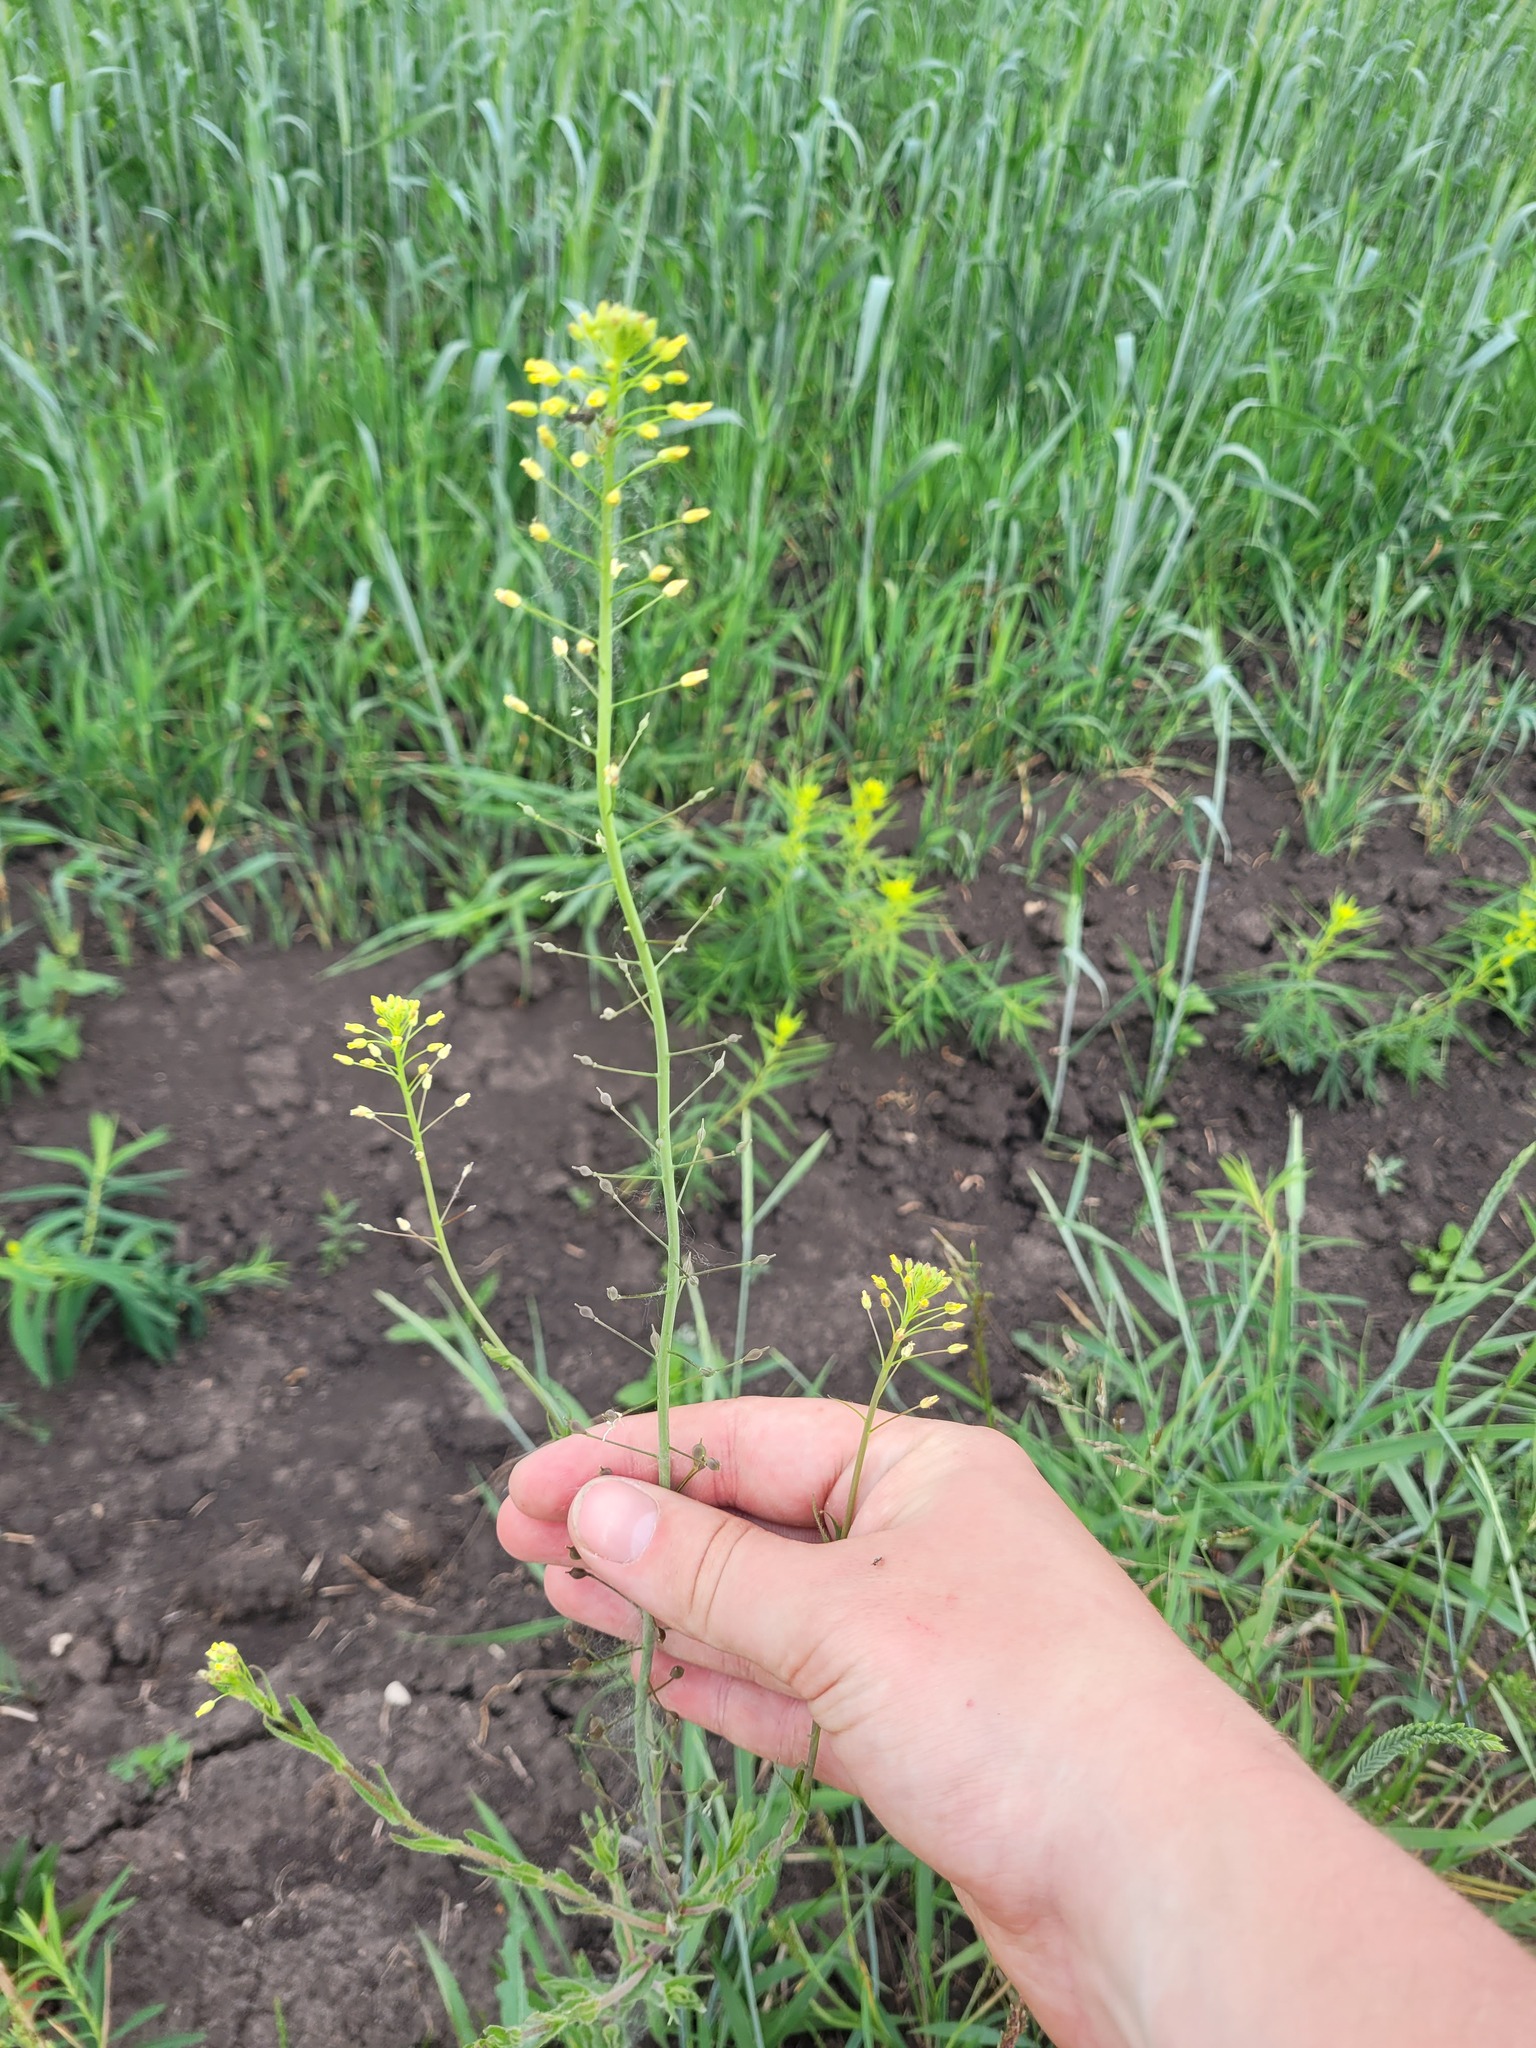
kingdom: Plantae
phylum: Tracheophyta
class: Magnoliopsida
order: Brassicales
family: Brassicaceae
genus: Camelina
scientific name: Camelina microcarpa
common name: Lesser gold-of-pleasure
